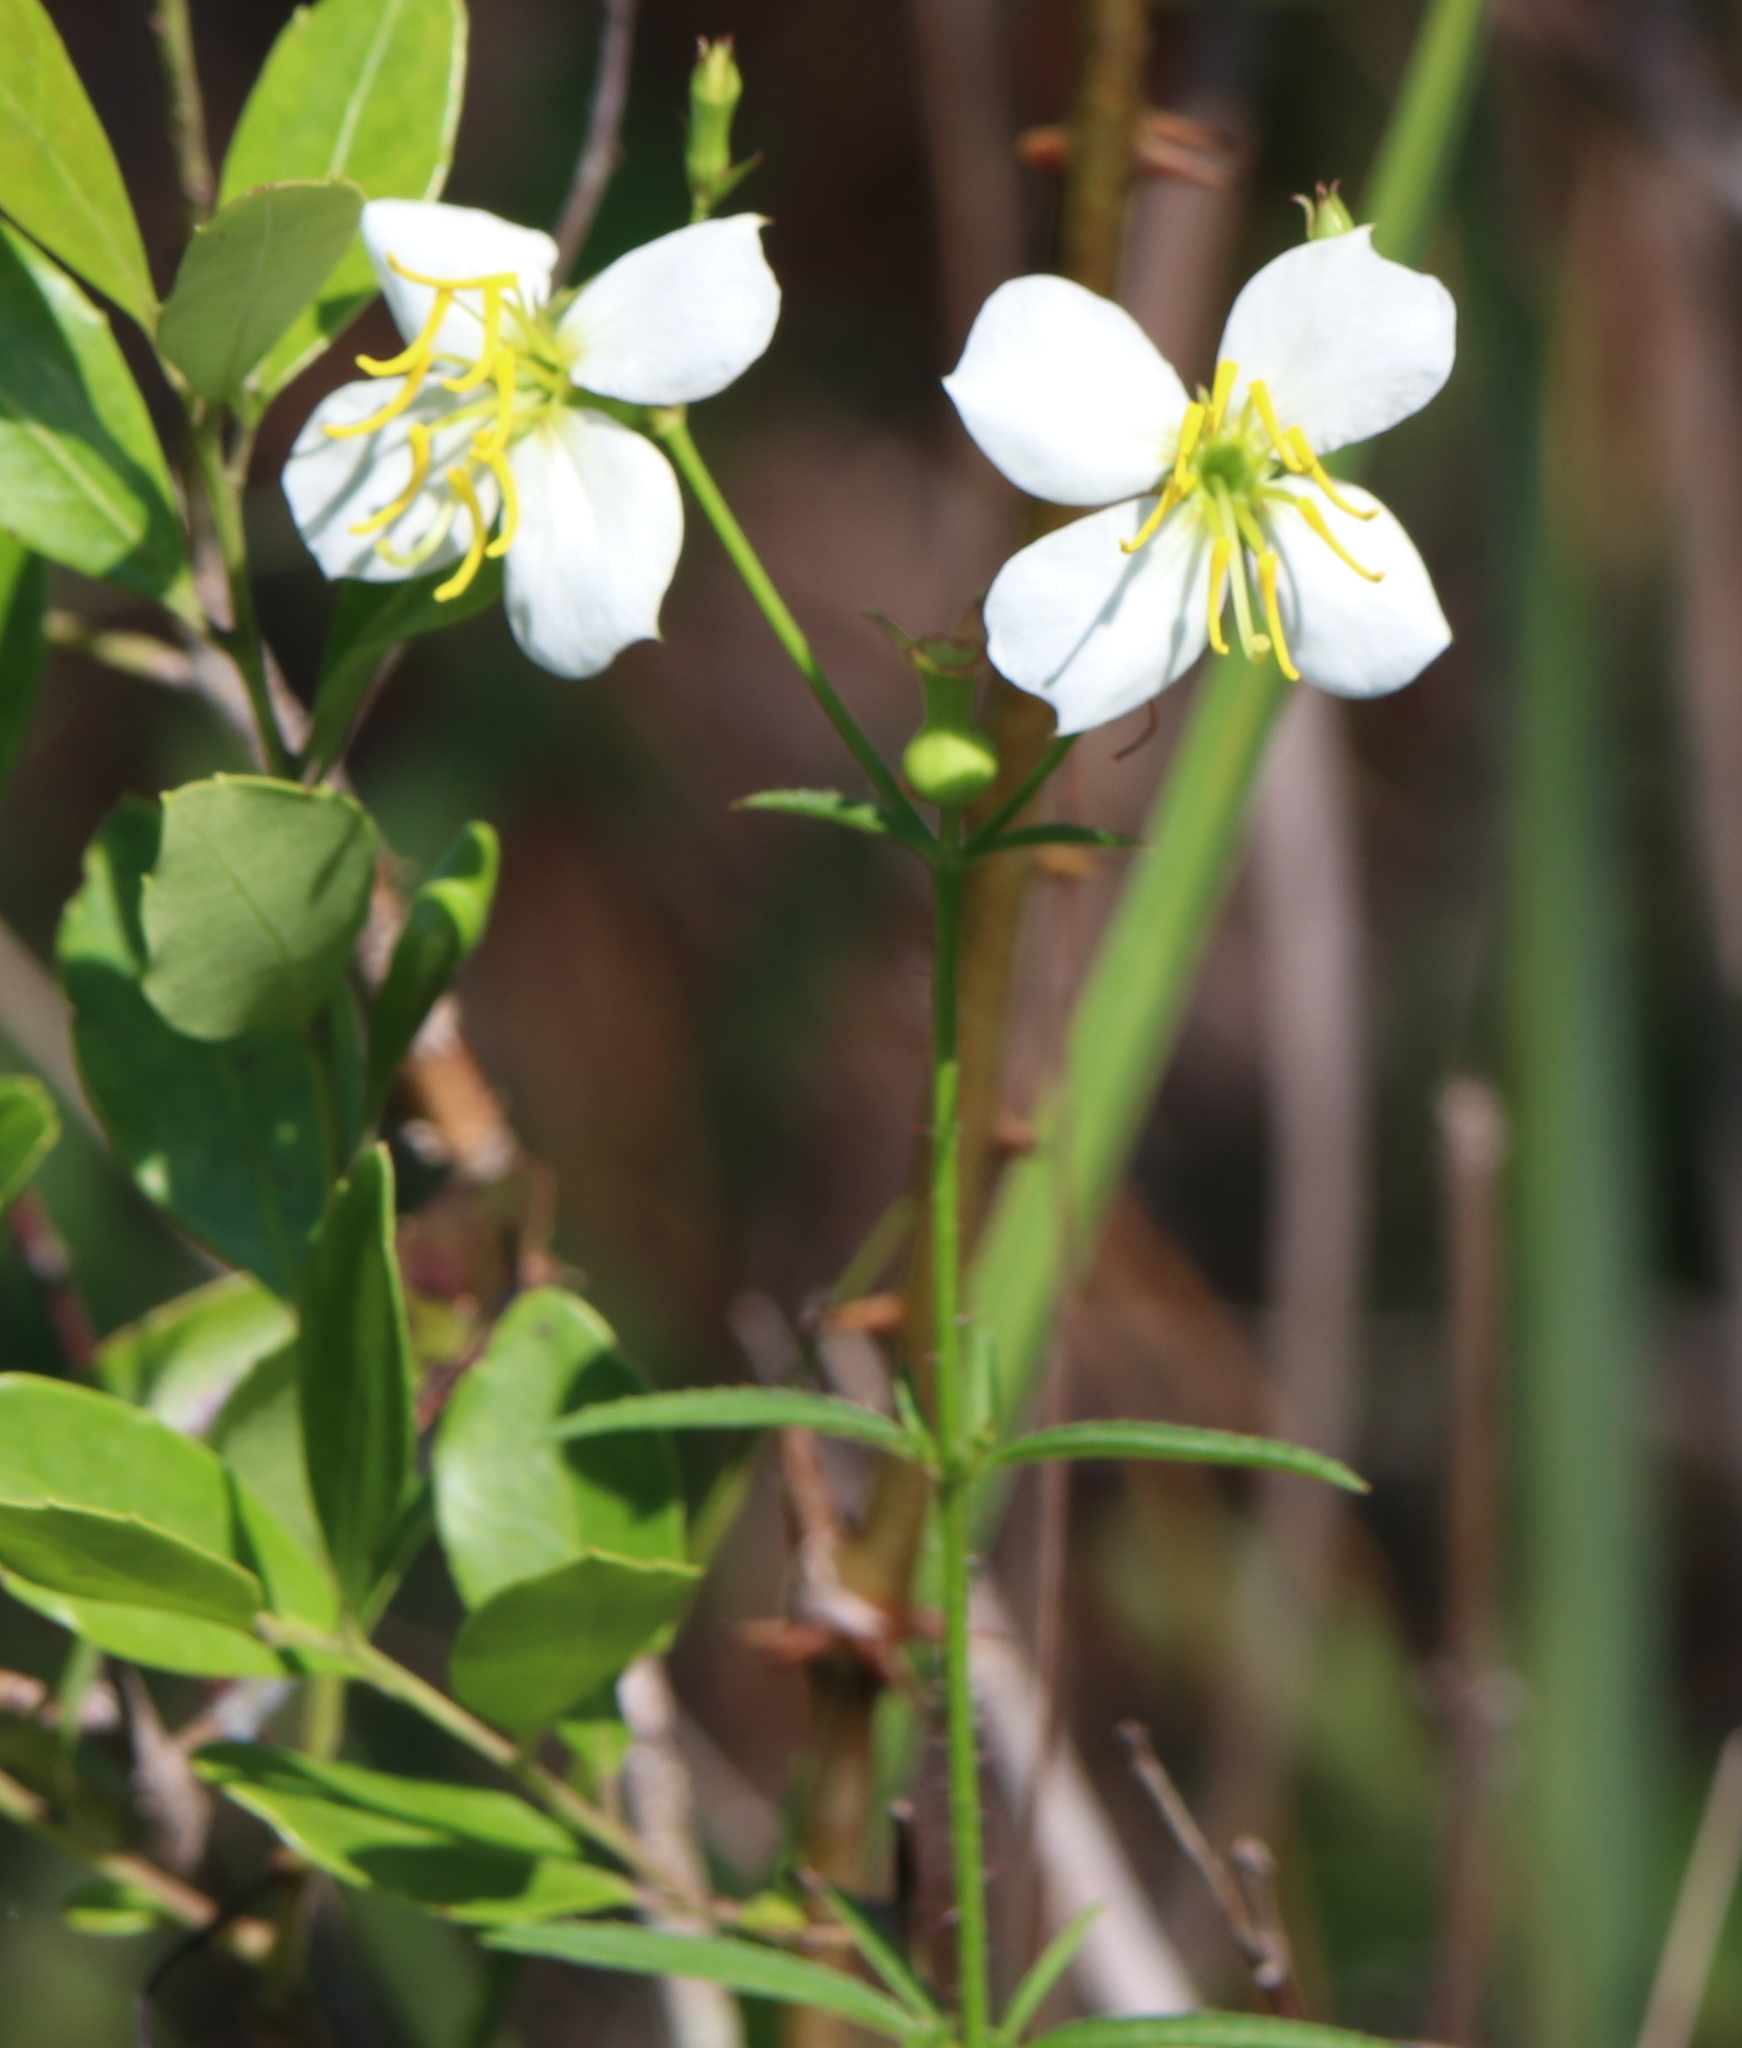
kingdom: Plantae
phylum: Tracheophyta
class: Magnoliopsida
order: Myrtales
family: Melastomataceae
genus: Rhexia
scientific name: Rhexia mariana
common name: Dull meadow-pitcher
